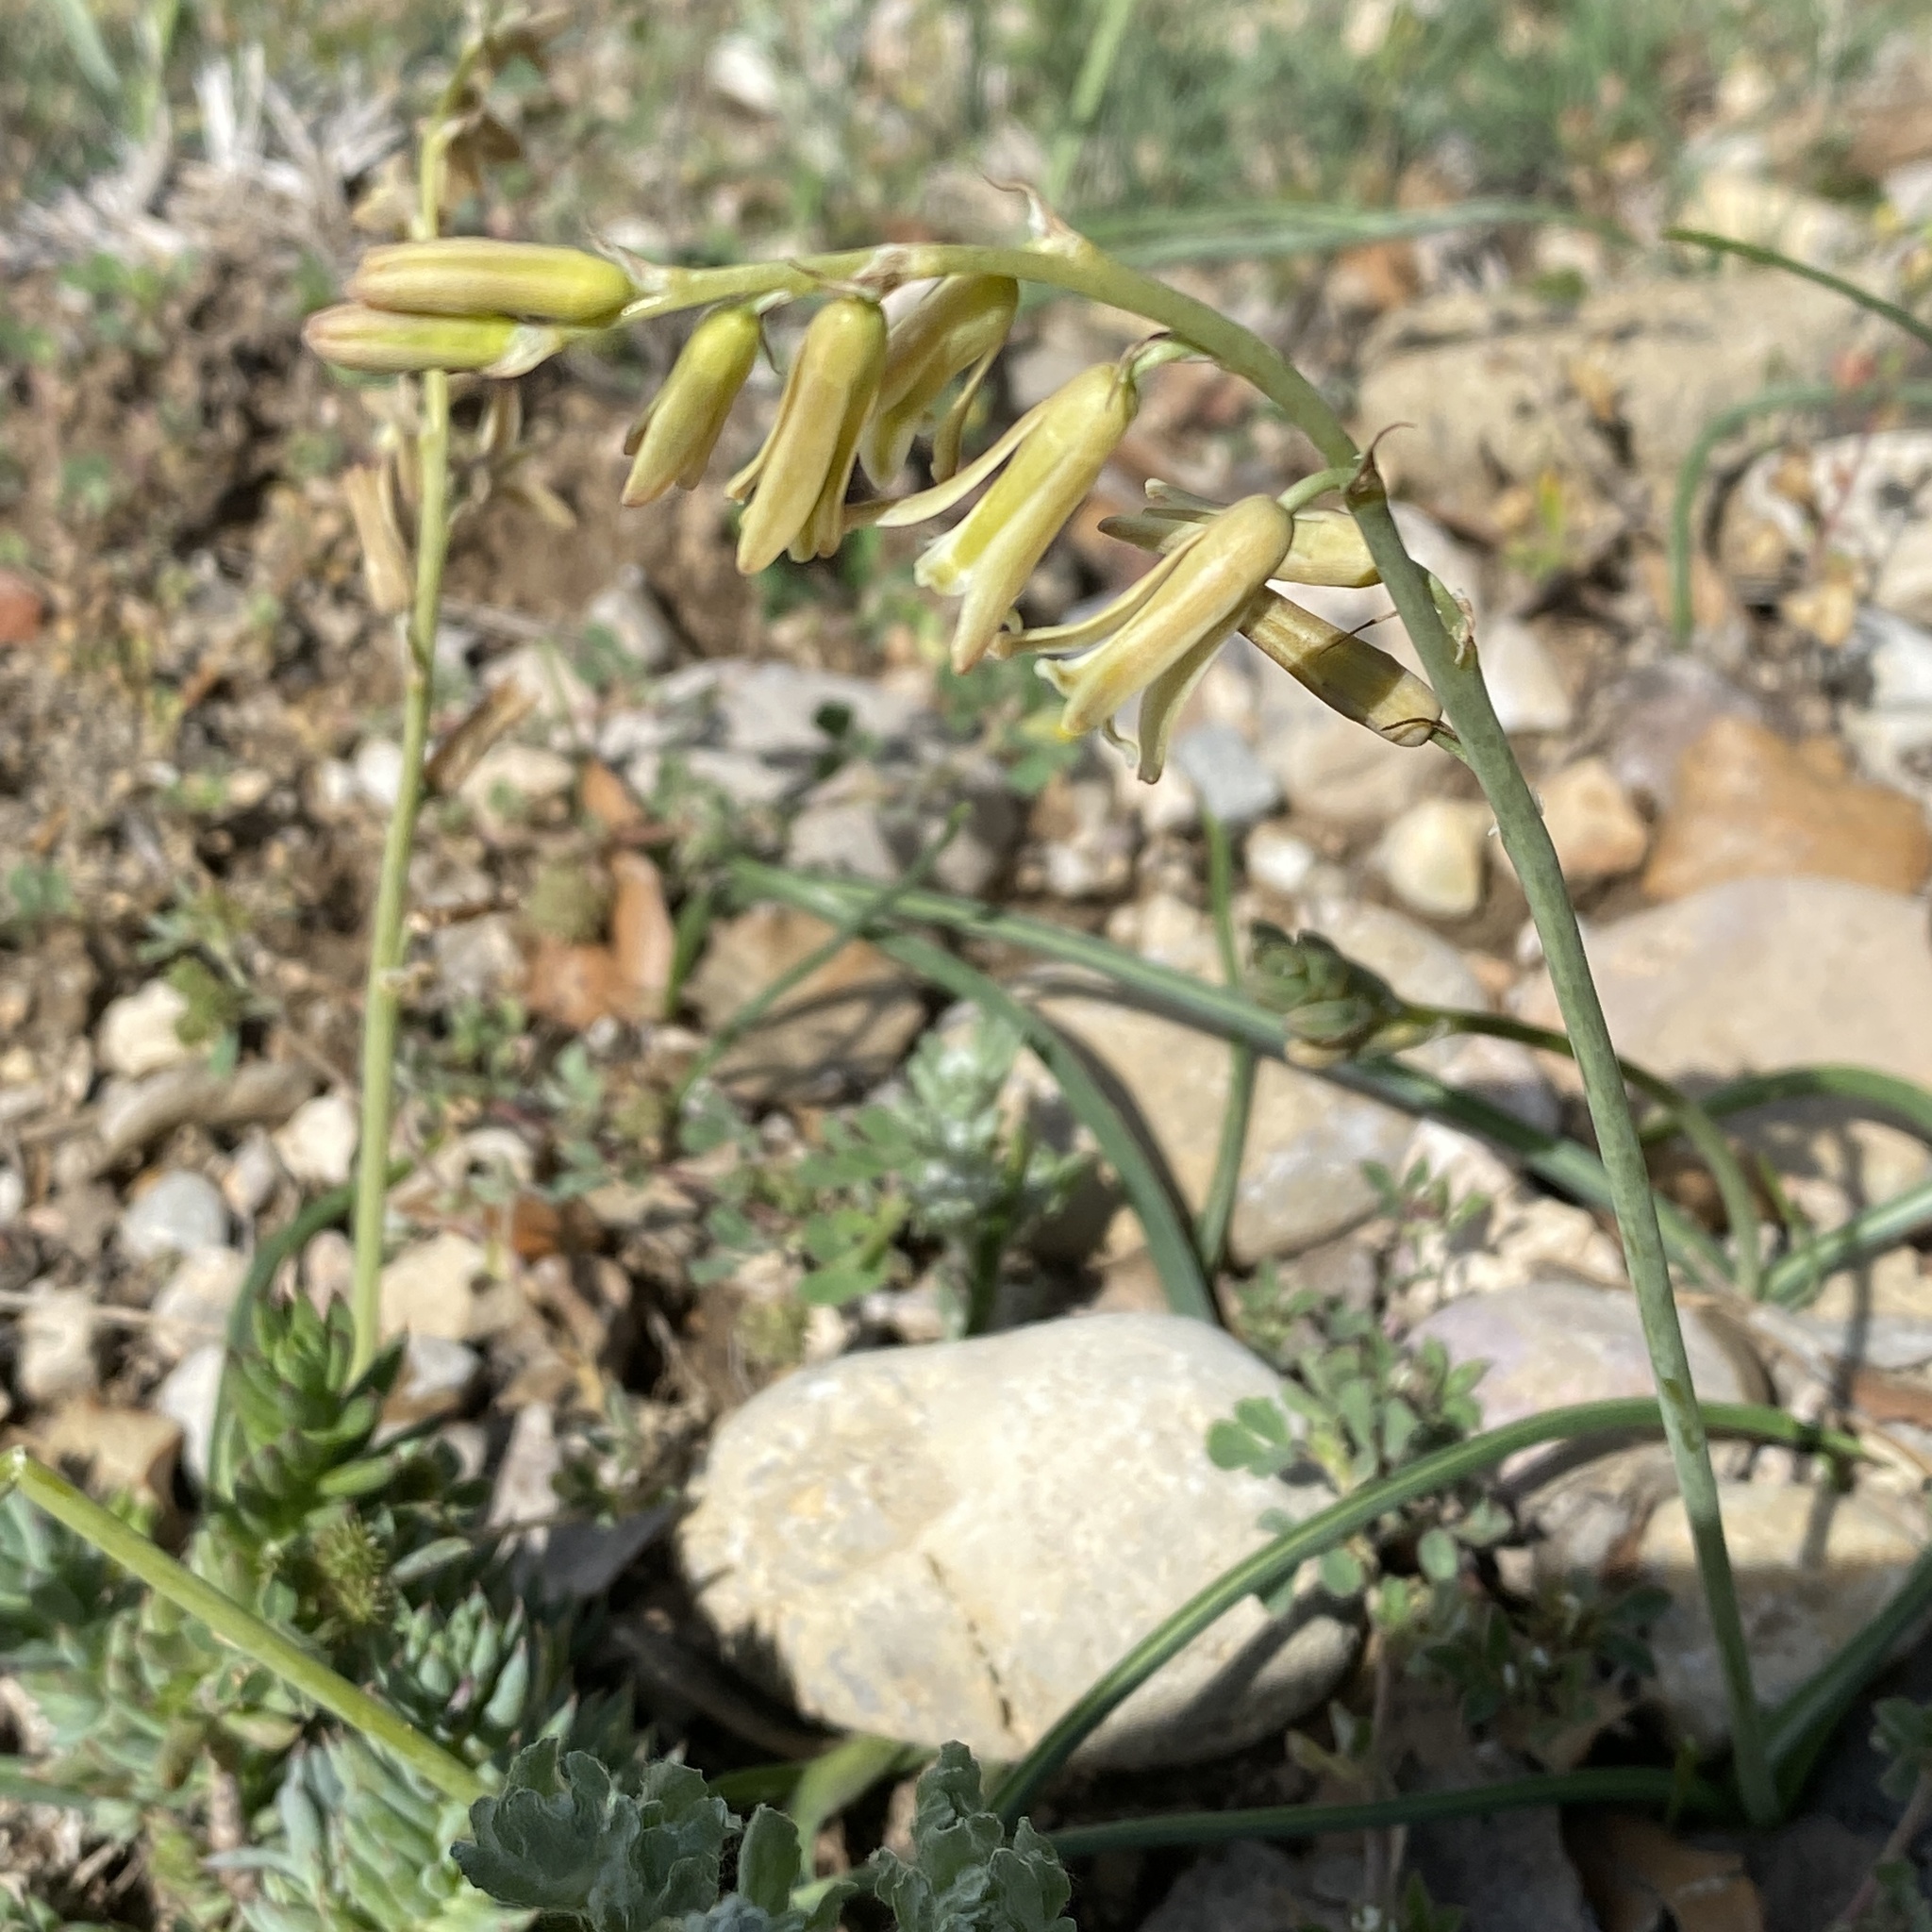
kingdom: Plantae
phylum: Tracheophyta
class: Liliopsida
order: Asparagales
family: Asparagaceae
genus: Dipcadi
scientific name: Dipcadi serotinum
